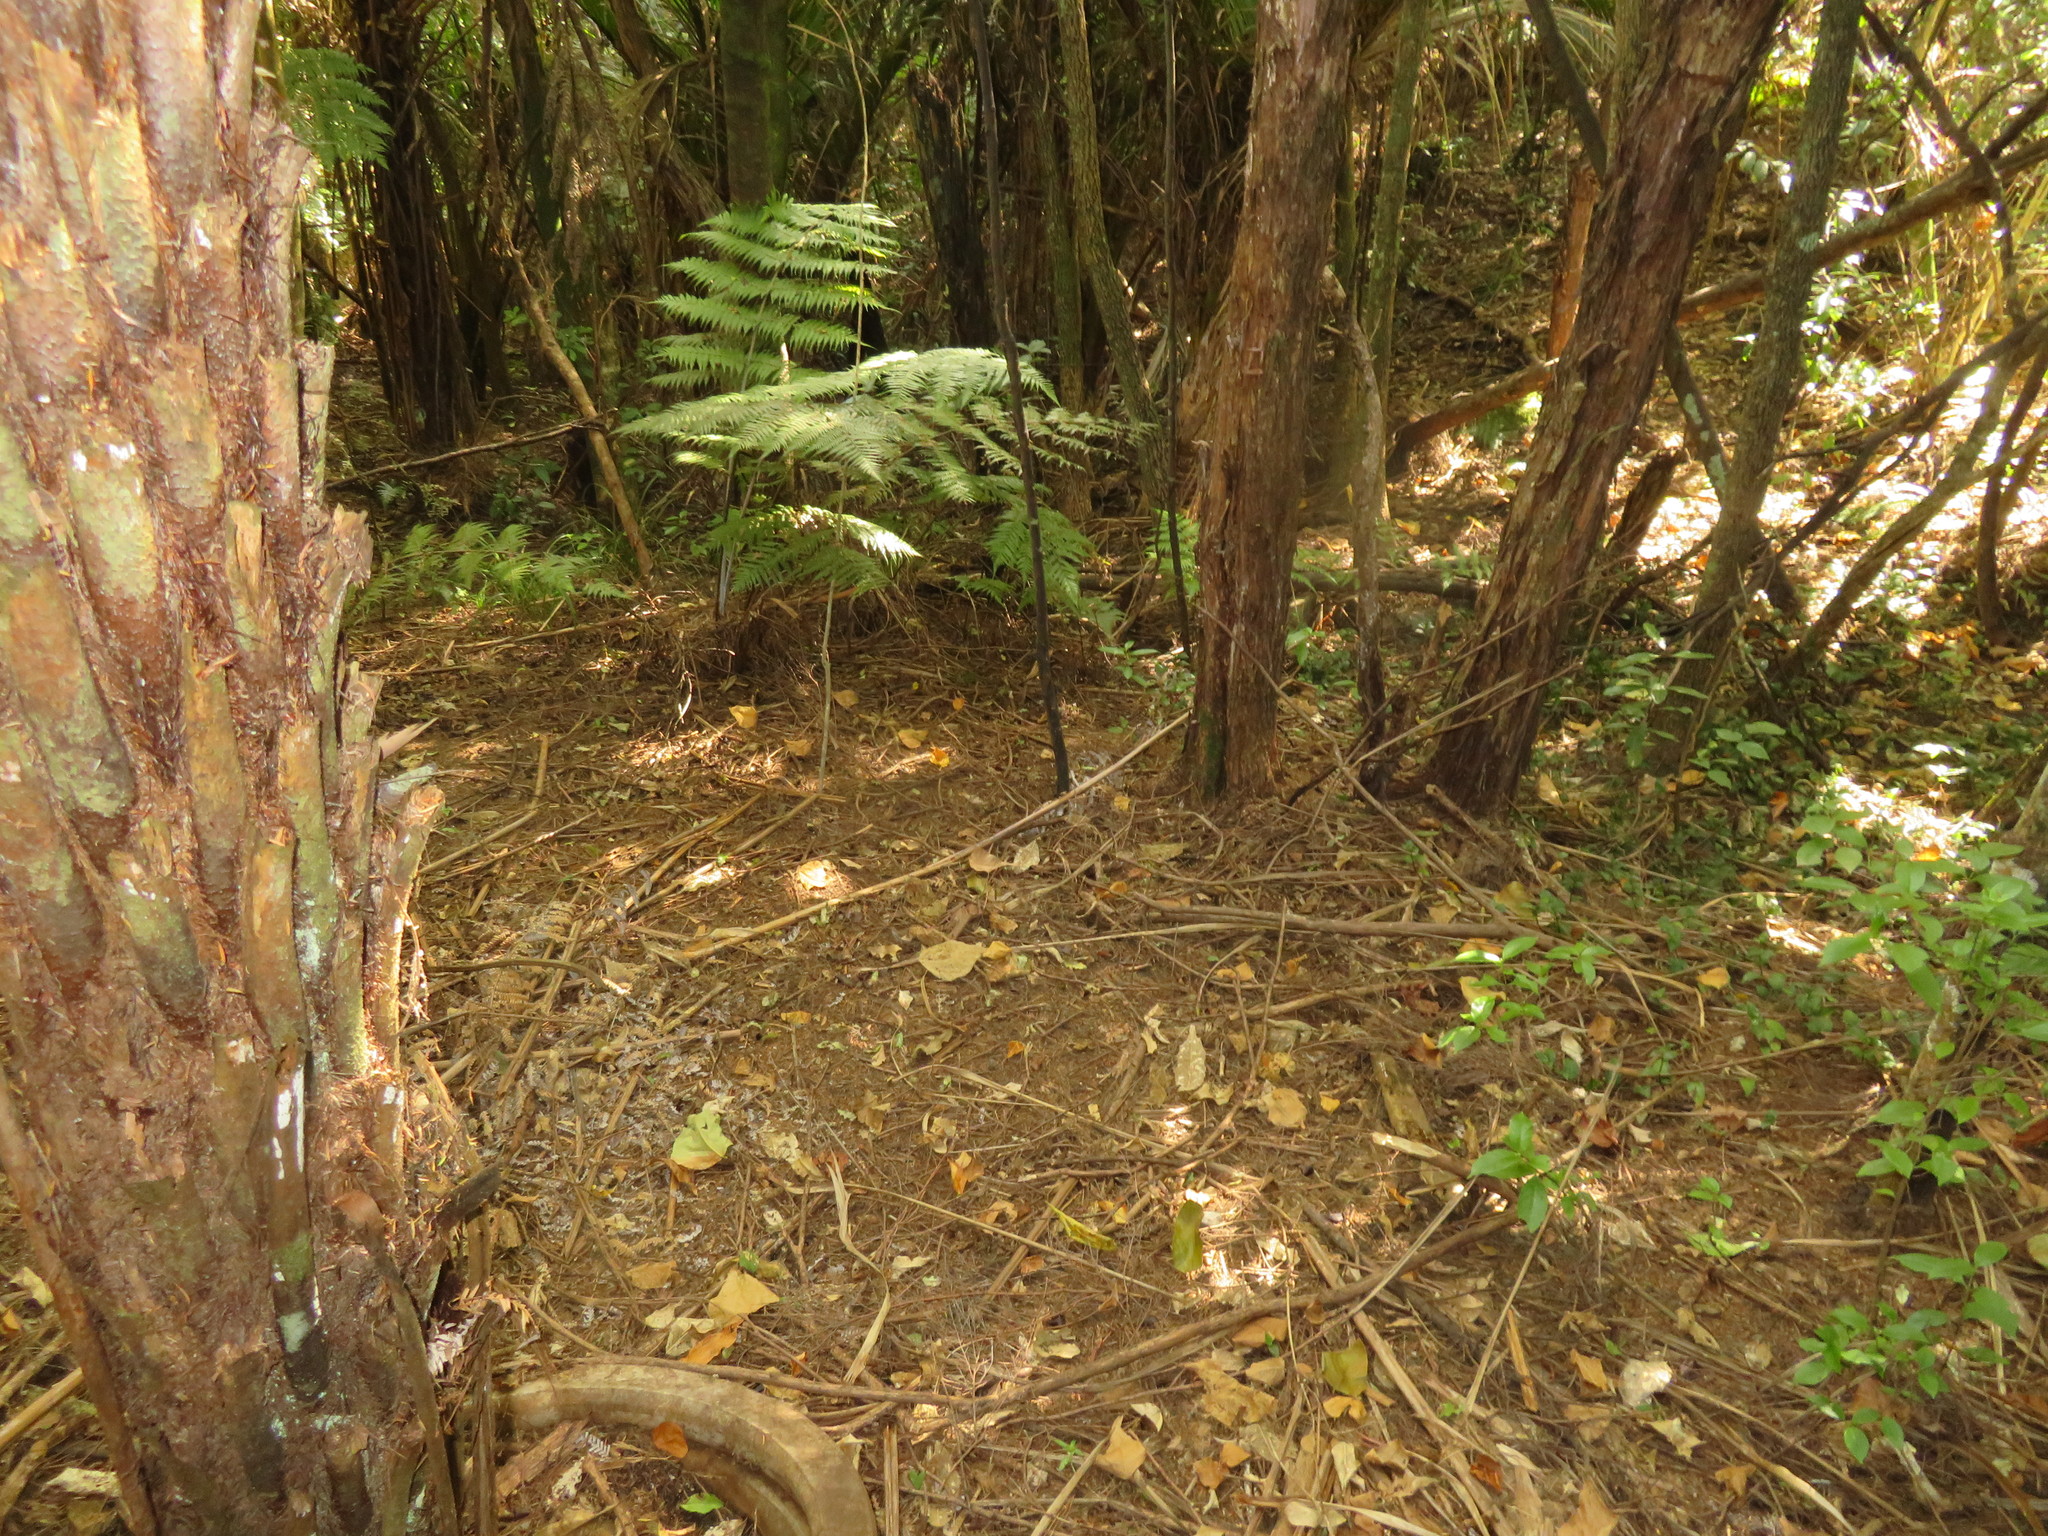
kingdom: Plantae
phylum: Tracheophyta
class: Polypodiopsida
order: Cyatheales
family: Cyatheaceae
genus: Alsophila
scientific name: Alsophila dealbata
